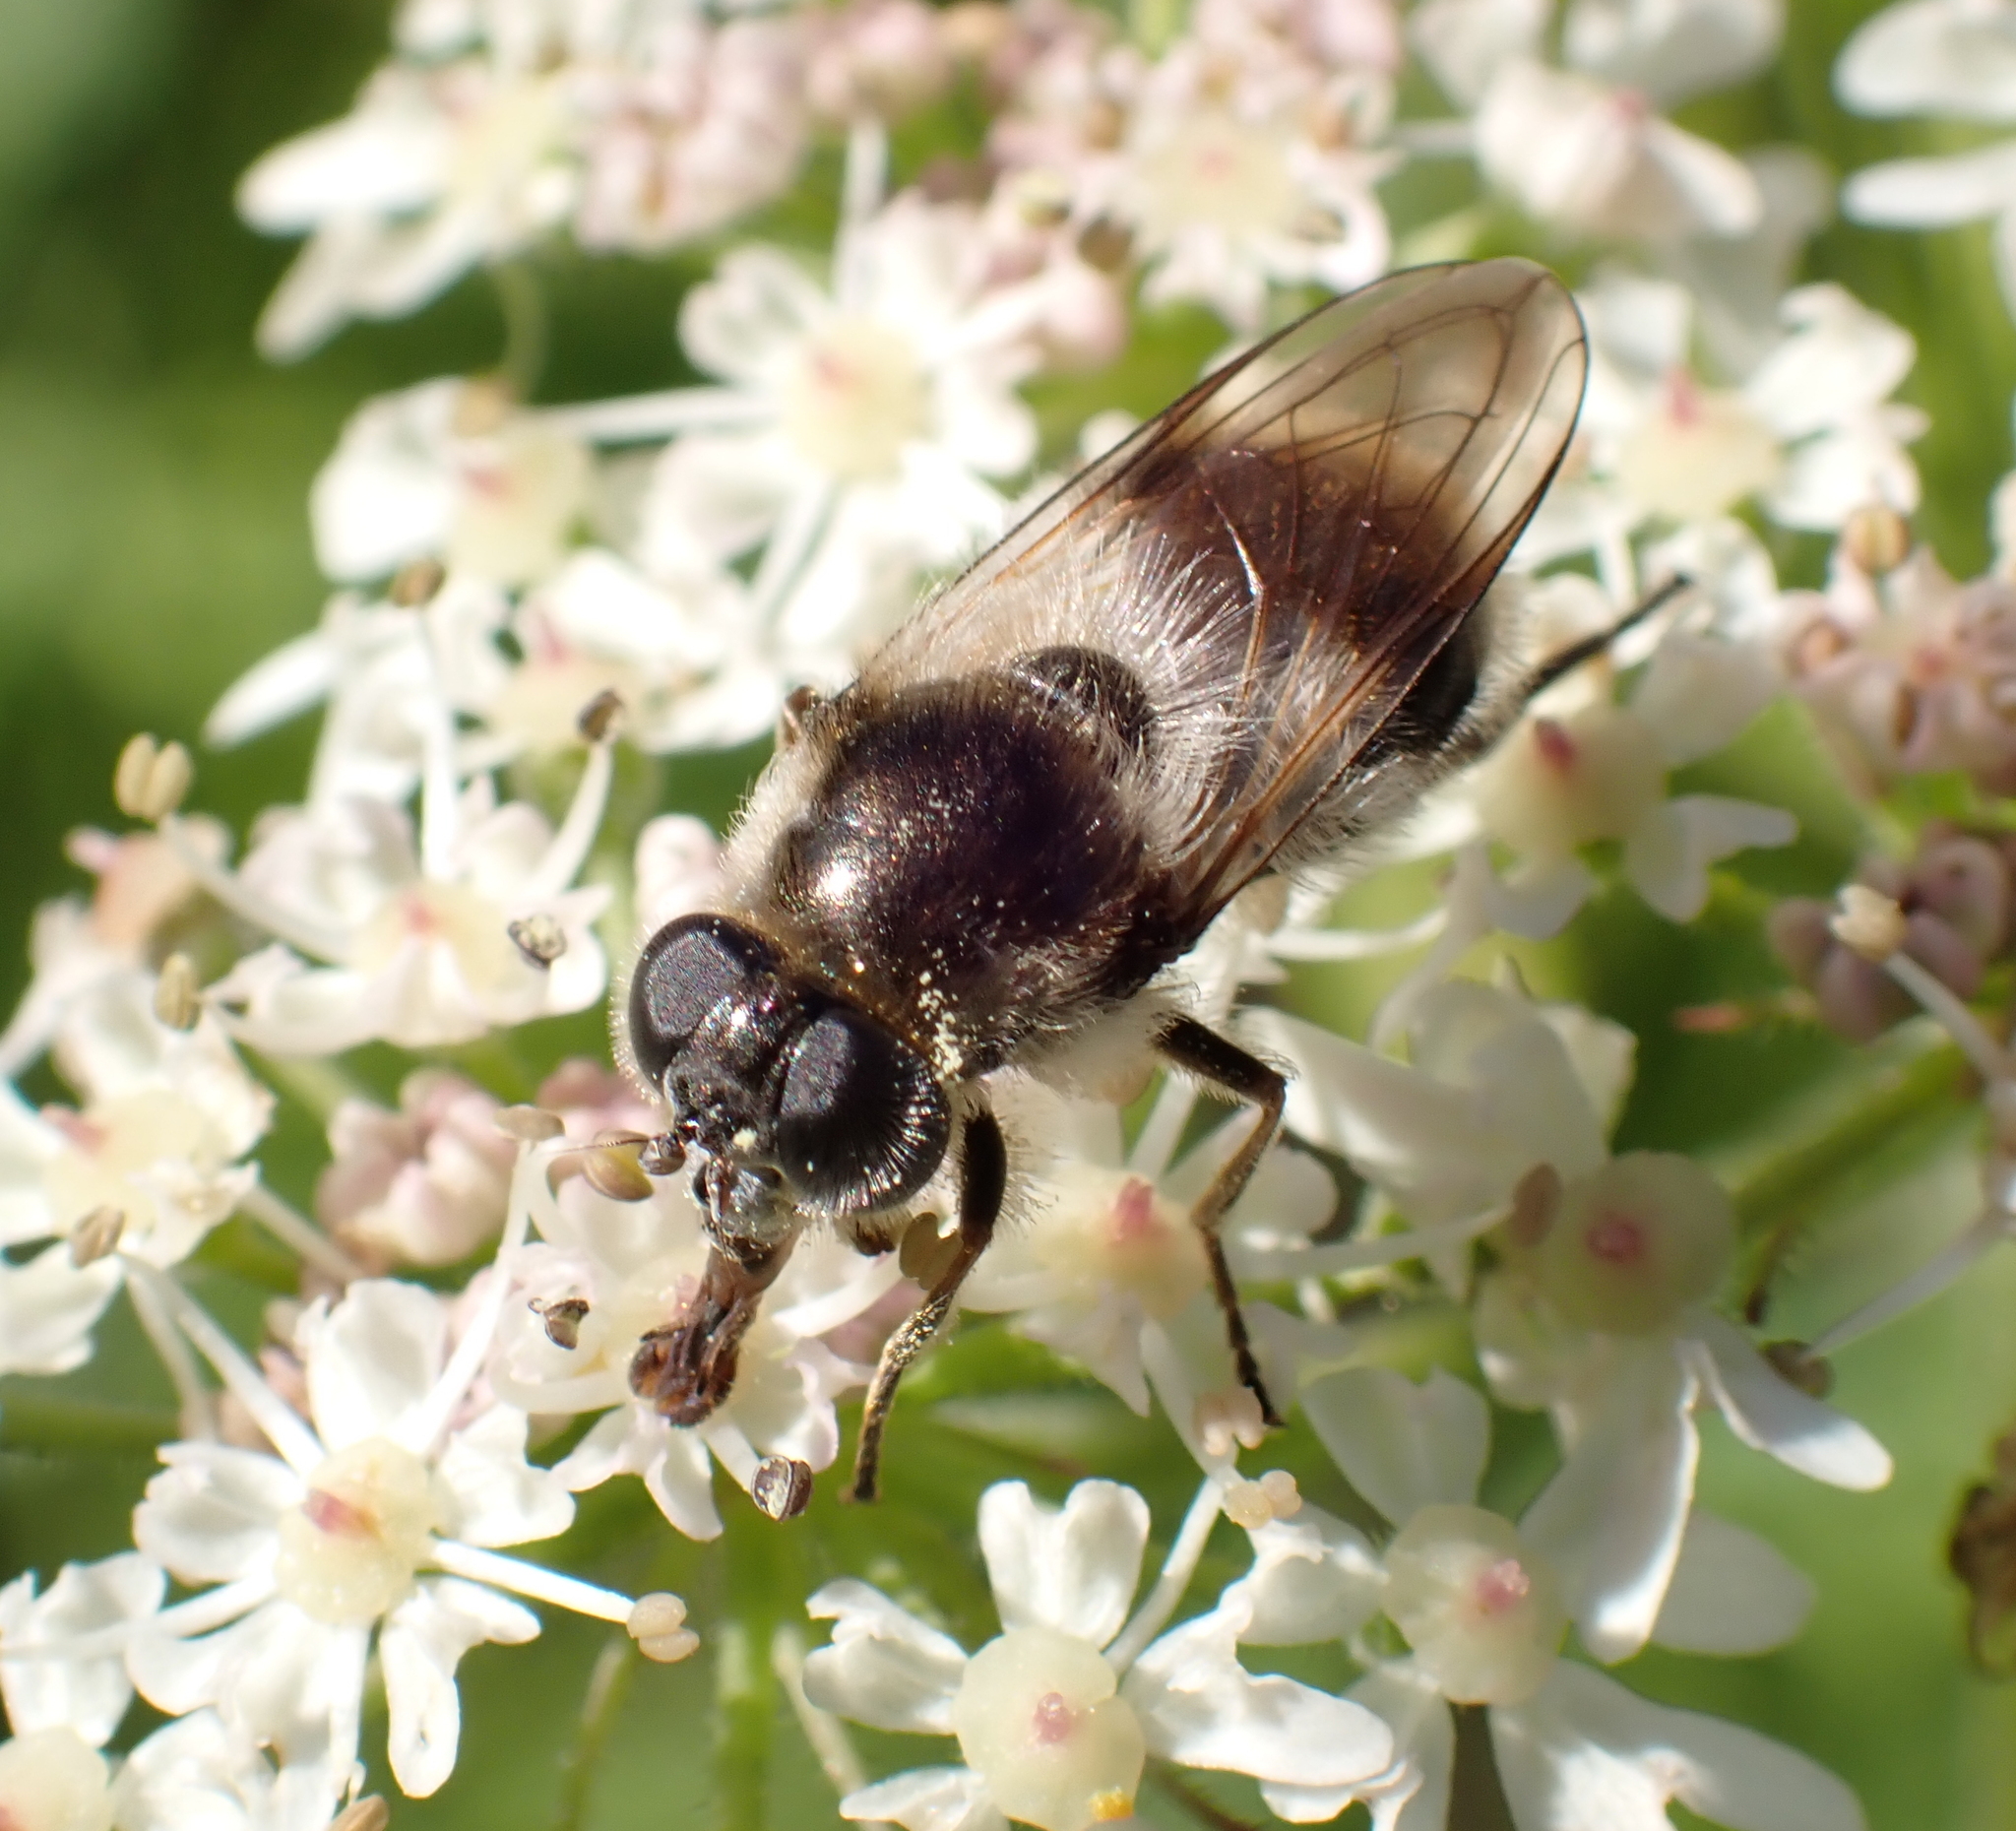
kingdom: Animalia
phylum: Arthropoda
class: Insecta
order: Diptera
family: Syrphidae
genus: Cheilosia
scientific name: Cheilosia illustrata
